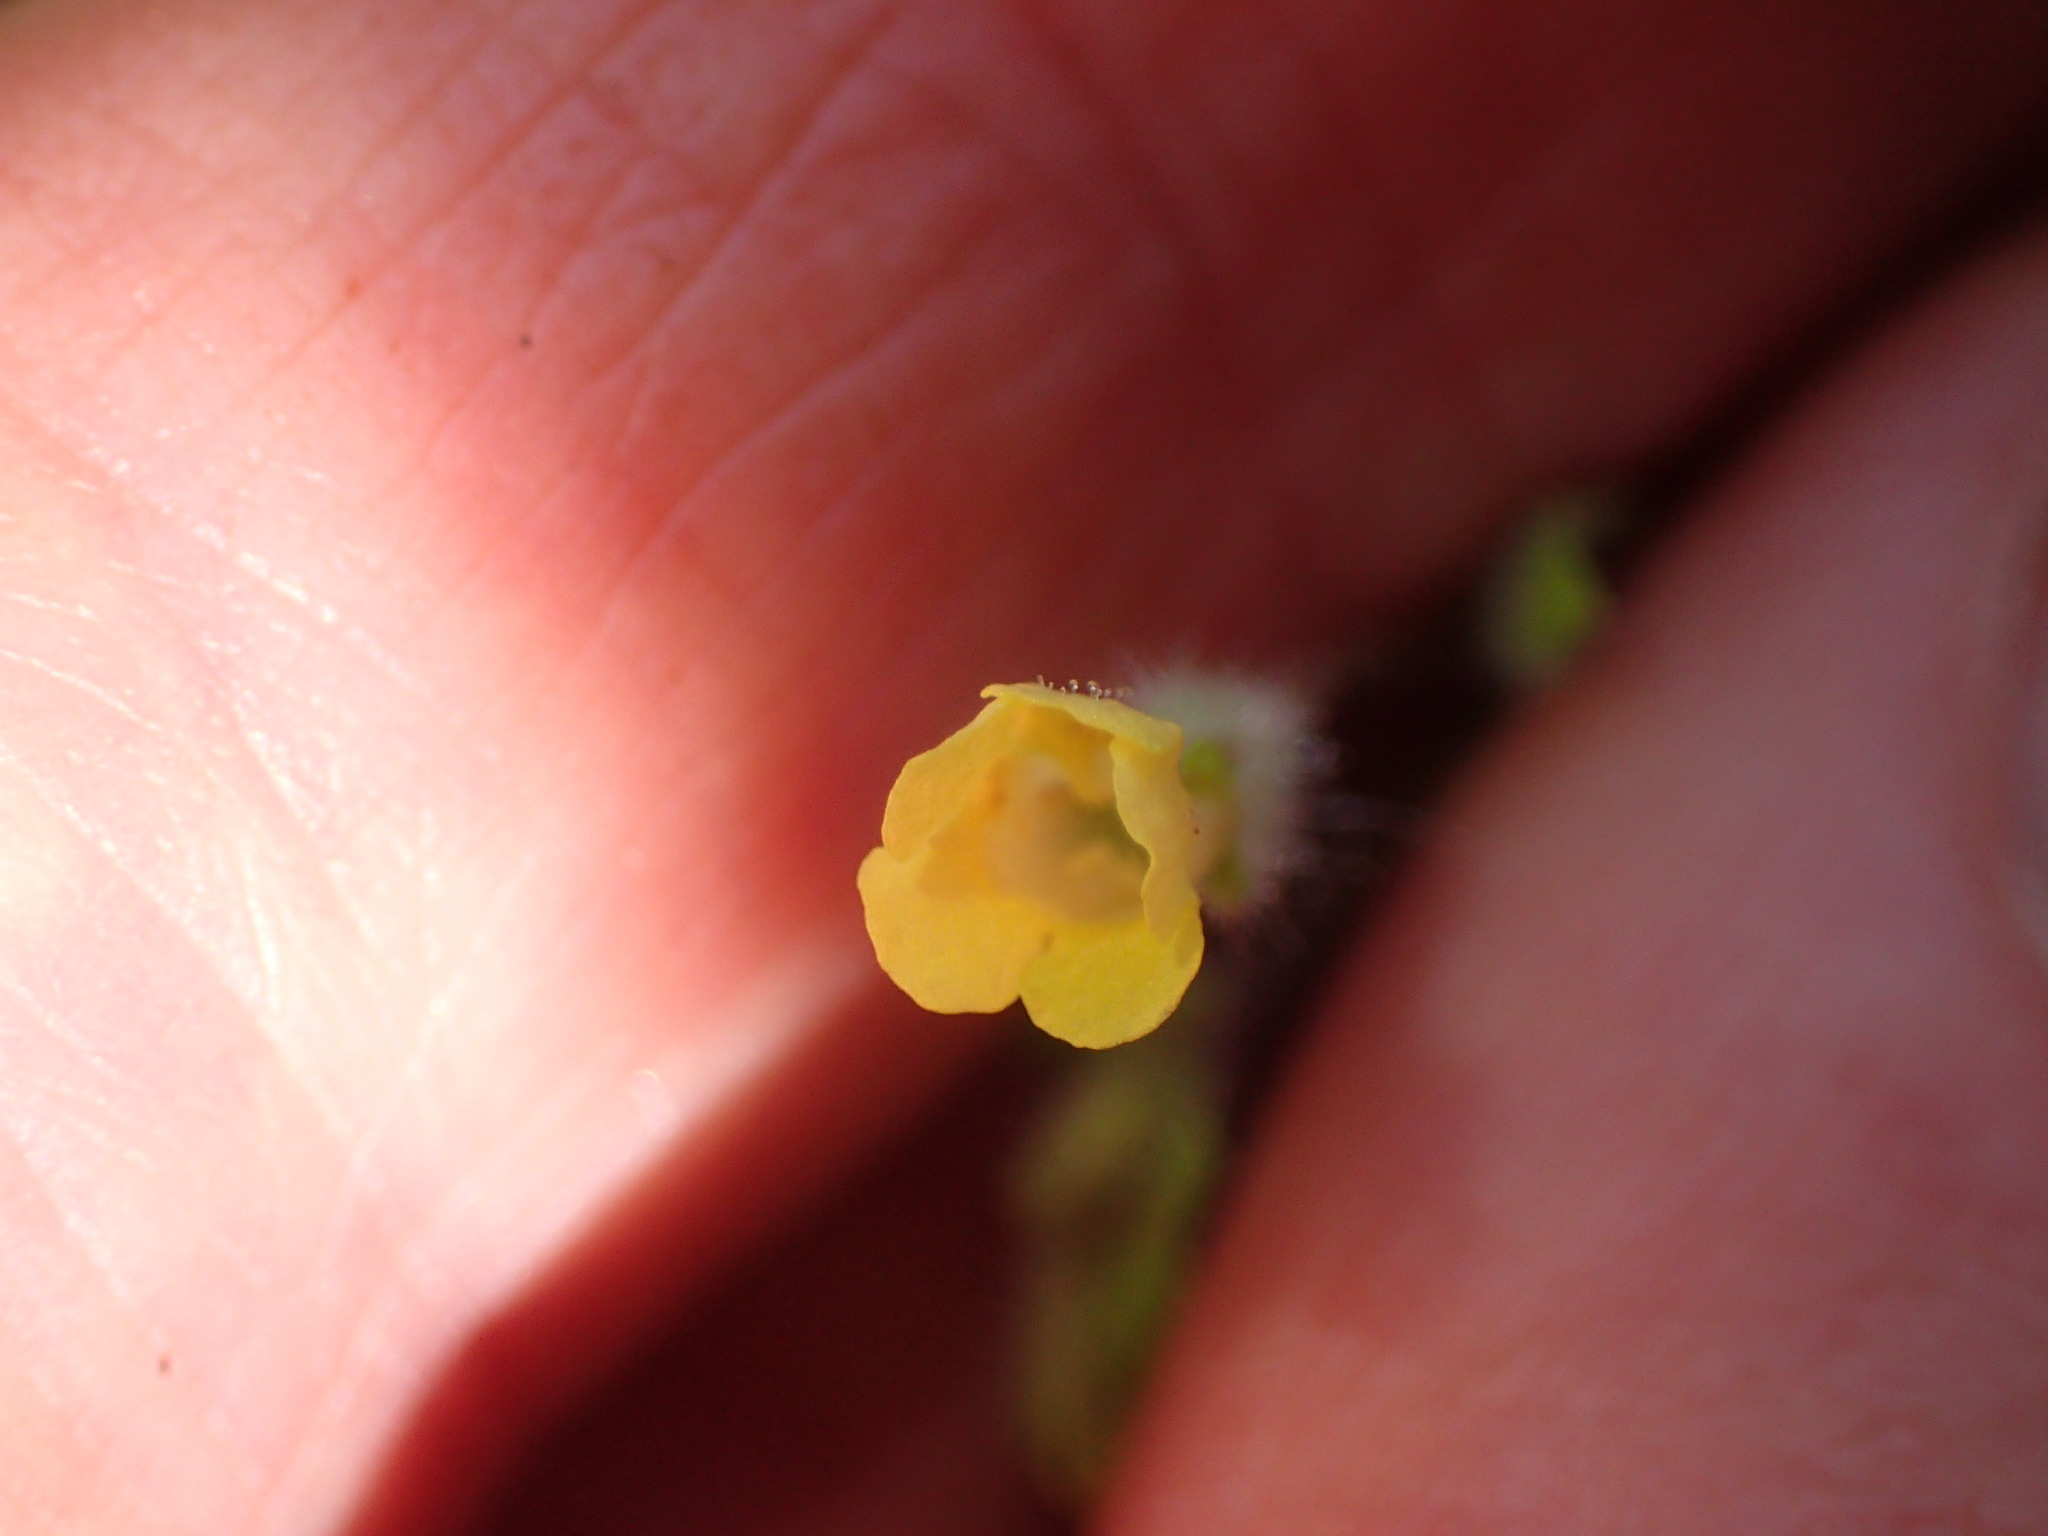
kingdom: Plantae
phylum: Tracheophyta
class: Magnoliopsida
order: Lamiales
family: Phrymaceae
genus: Erythranthe
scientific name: Erythranthe floribunda
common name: Floriferous monkeyflower
